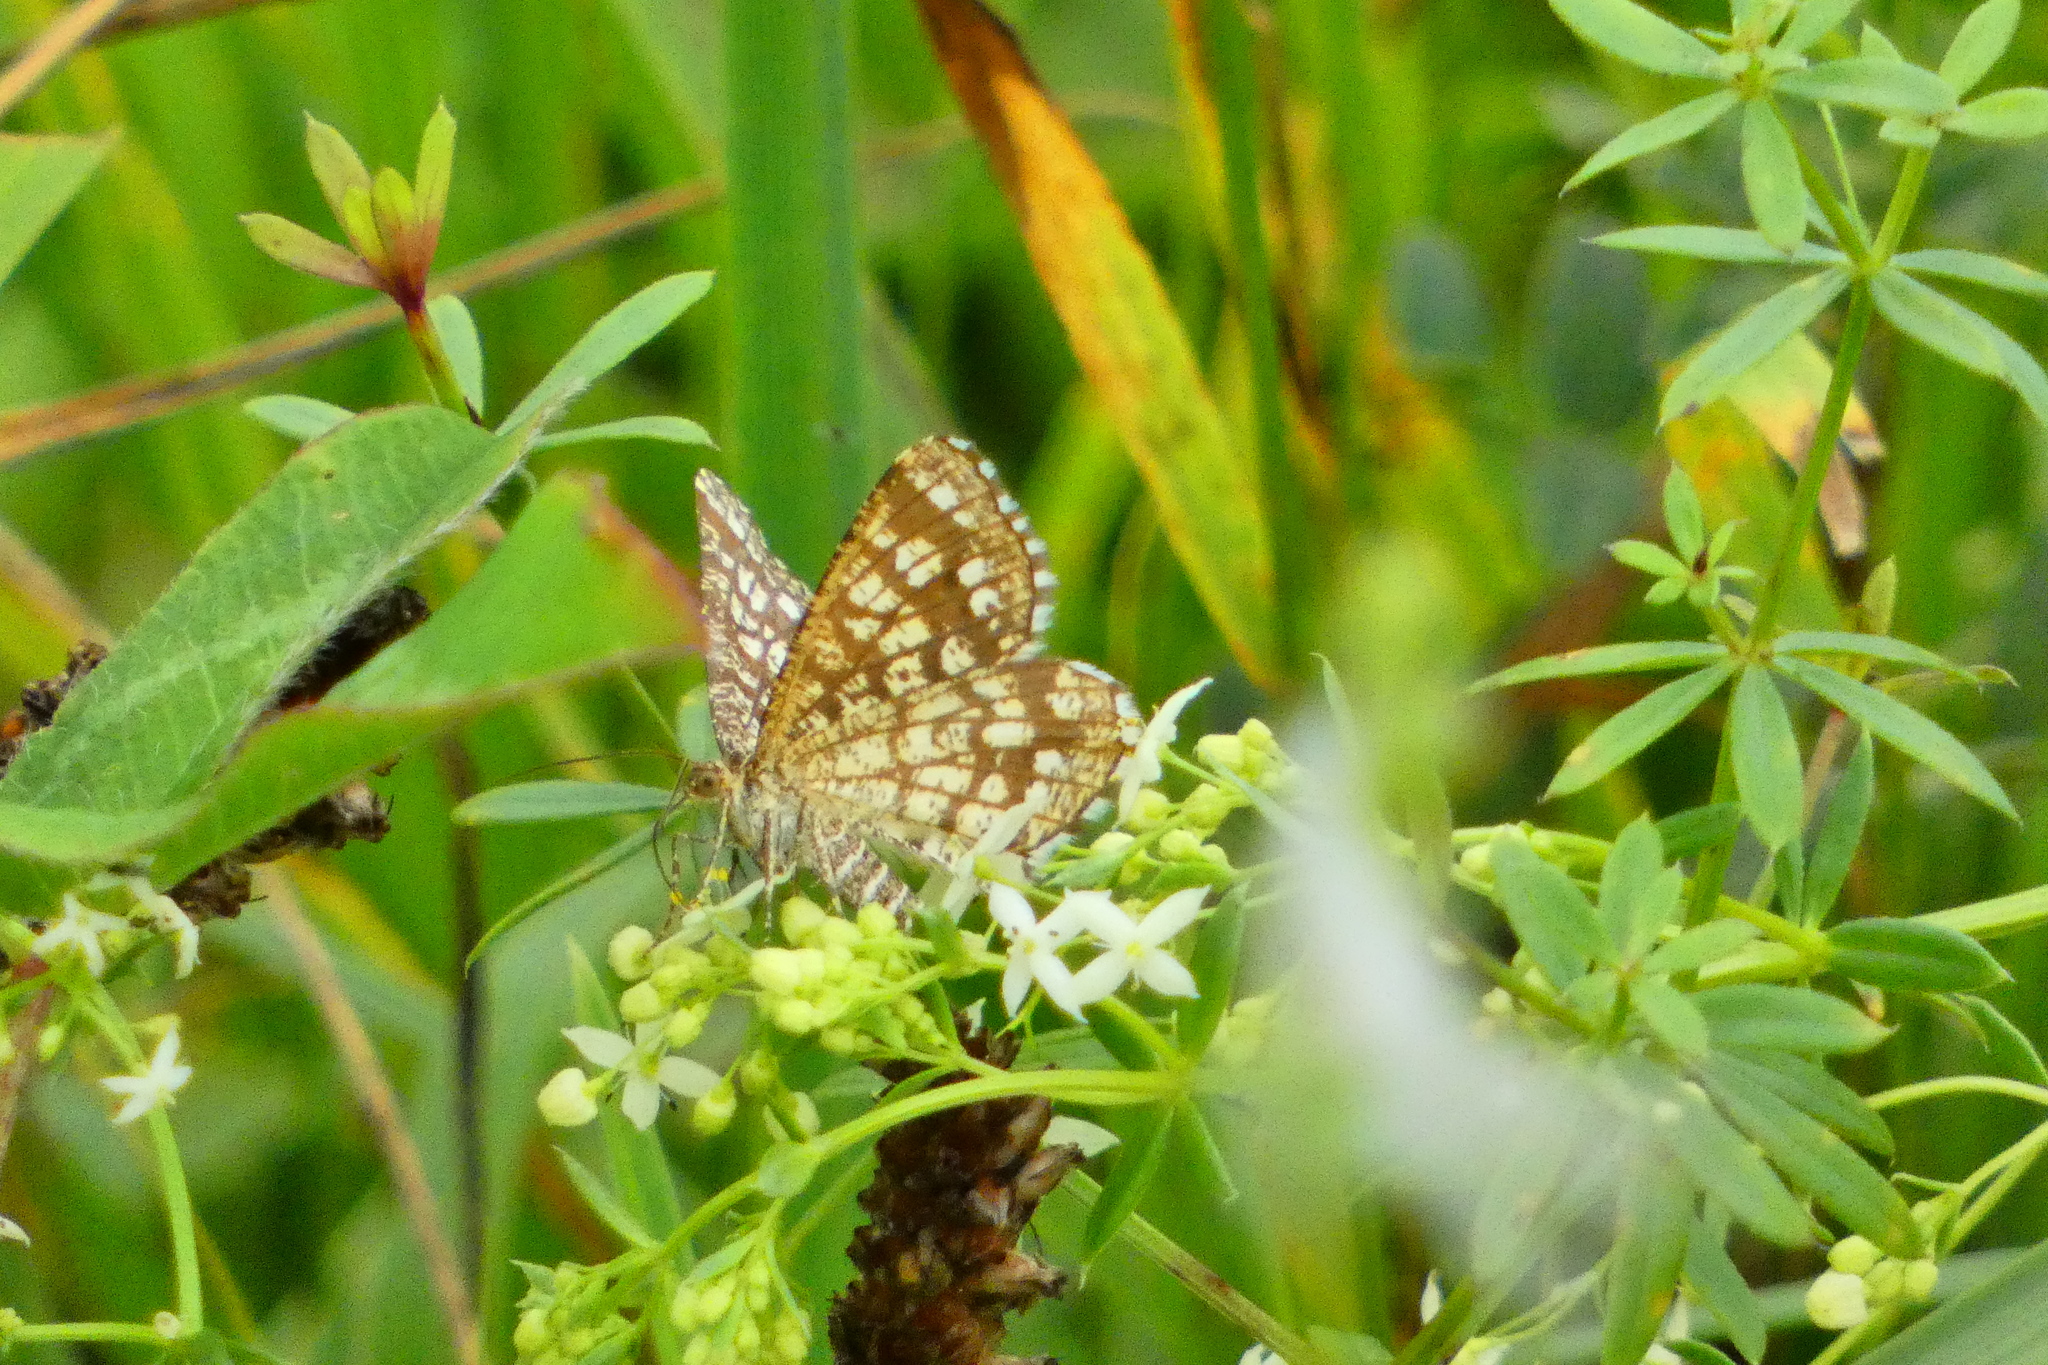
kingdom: Animalia
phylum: Arthropoda
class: Insecta
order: Lepidoptera
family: Geometridae
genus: Chiasmia
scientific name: Chiasmia clathrata
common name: Latticed heath
